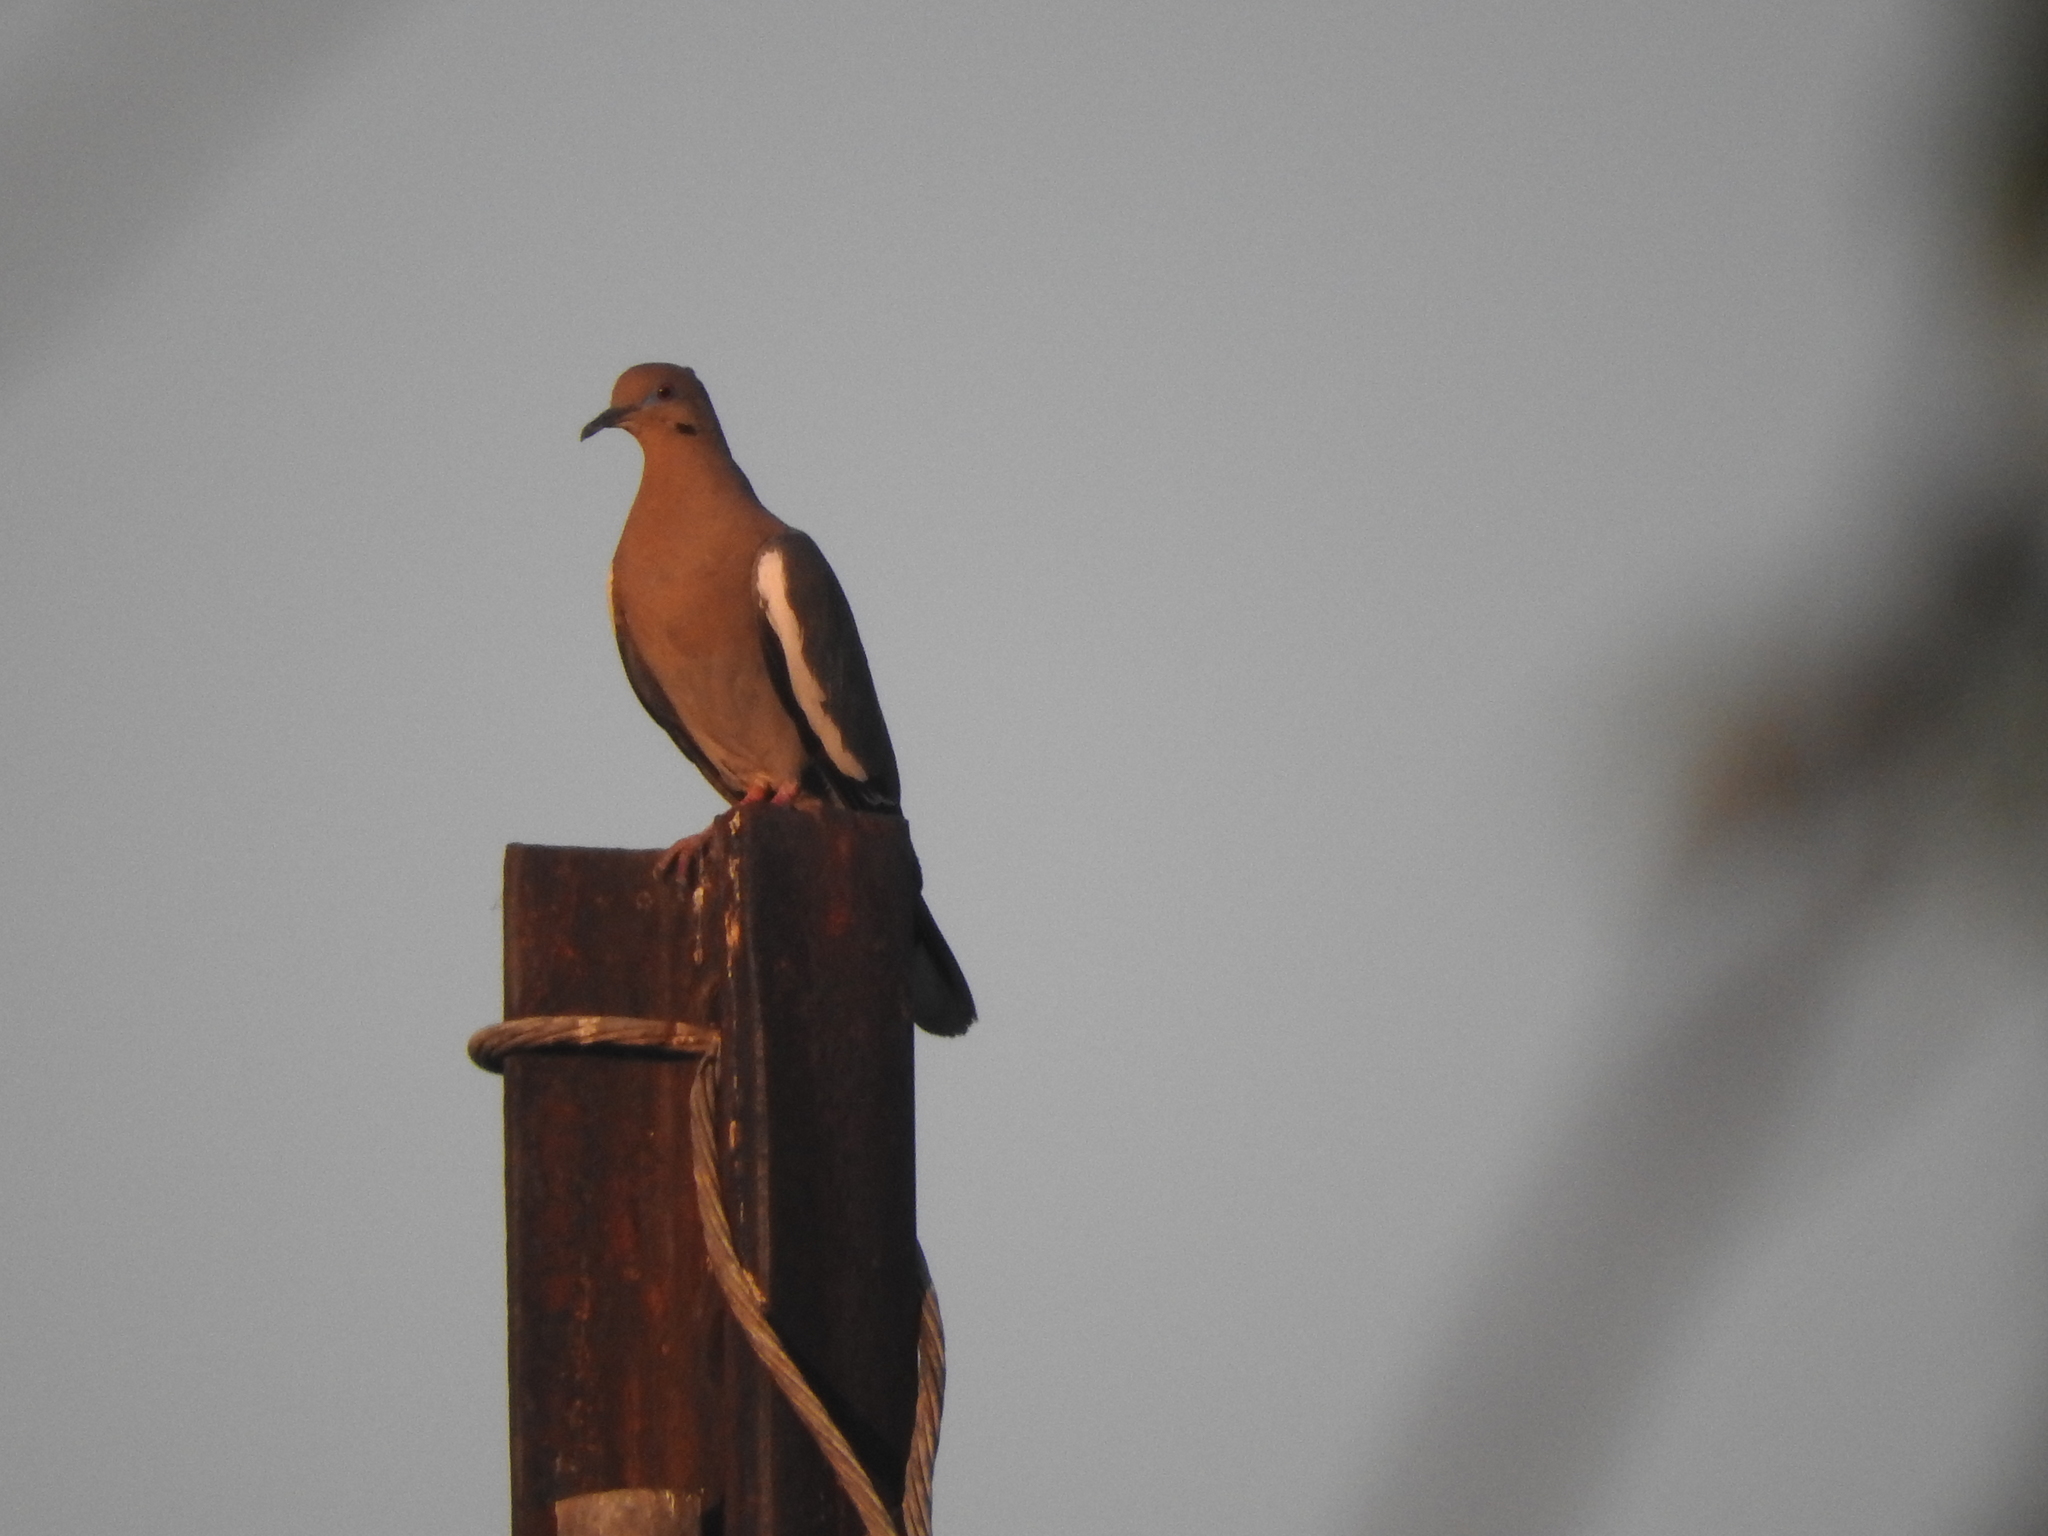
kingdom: Animalia
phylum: Chordata
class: Aves
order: Columbiformes
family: Columbidae
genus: Zenaida
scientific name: Zenaida asiatica
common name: White-winged dove
